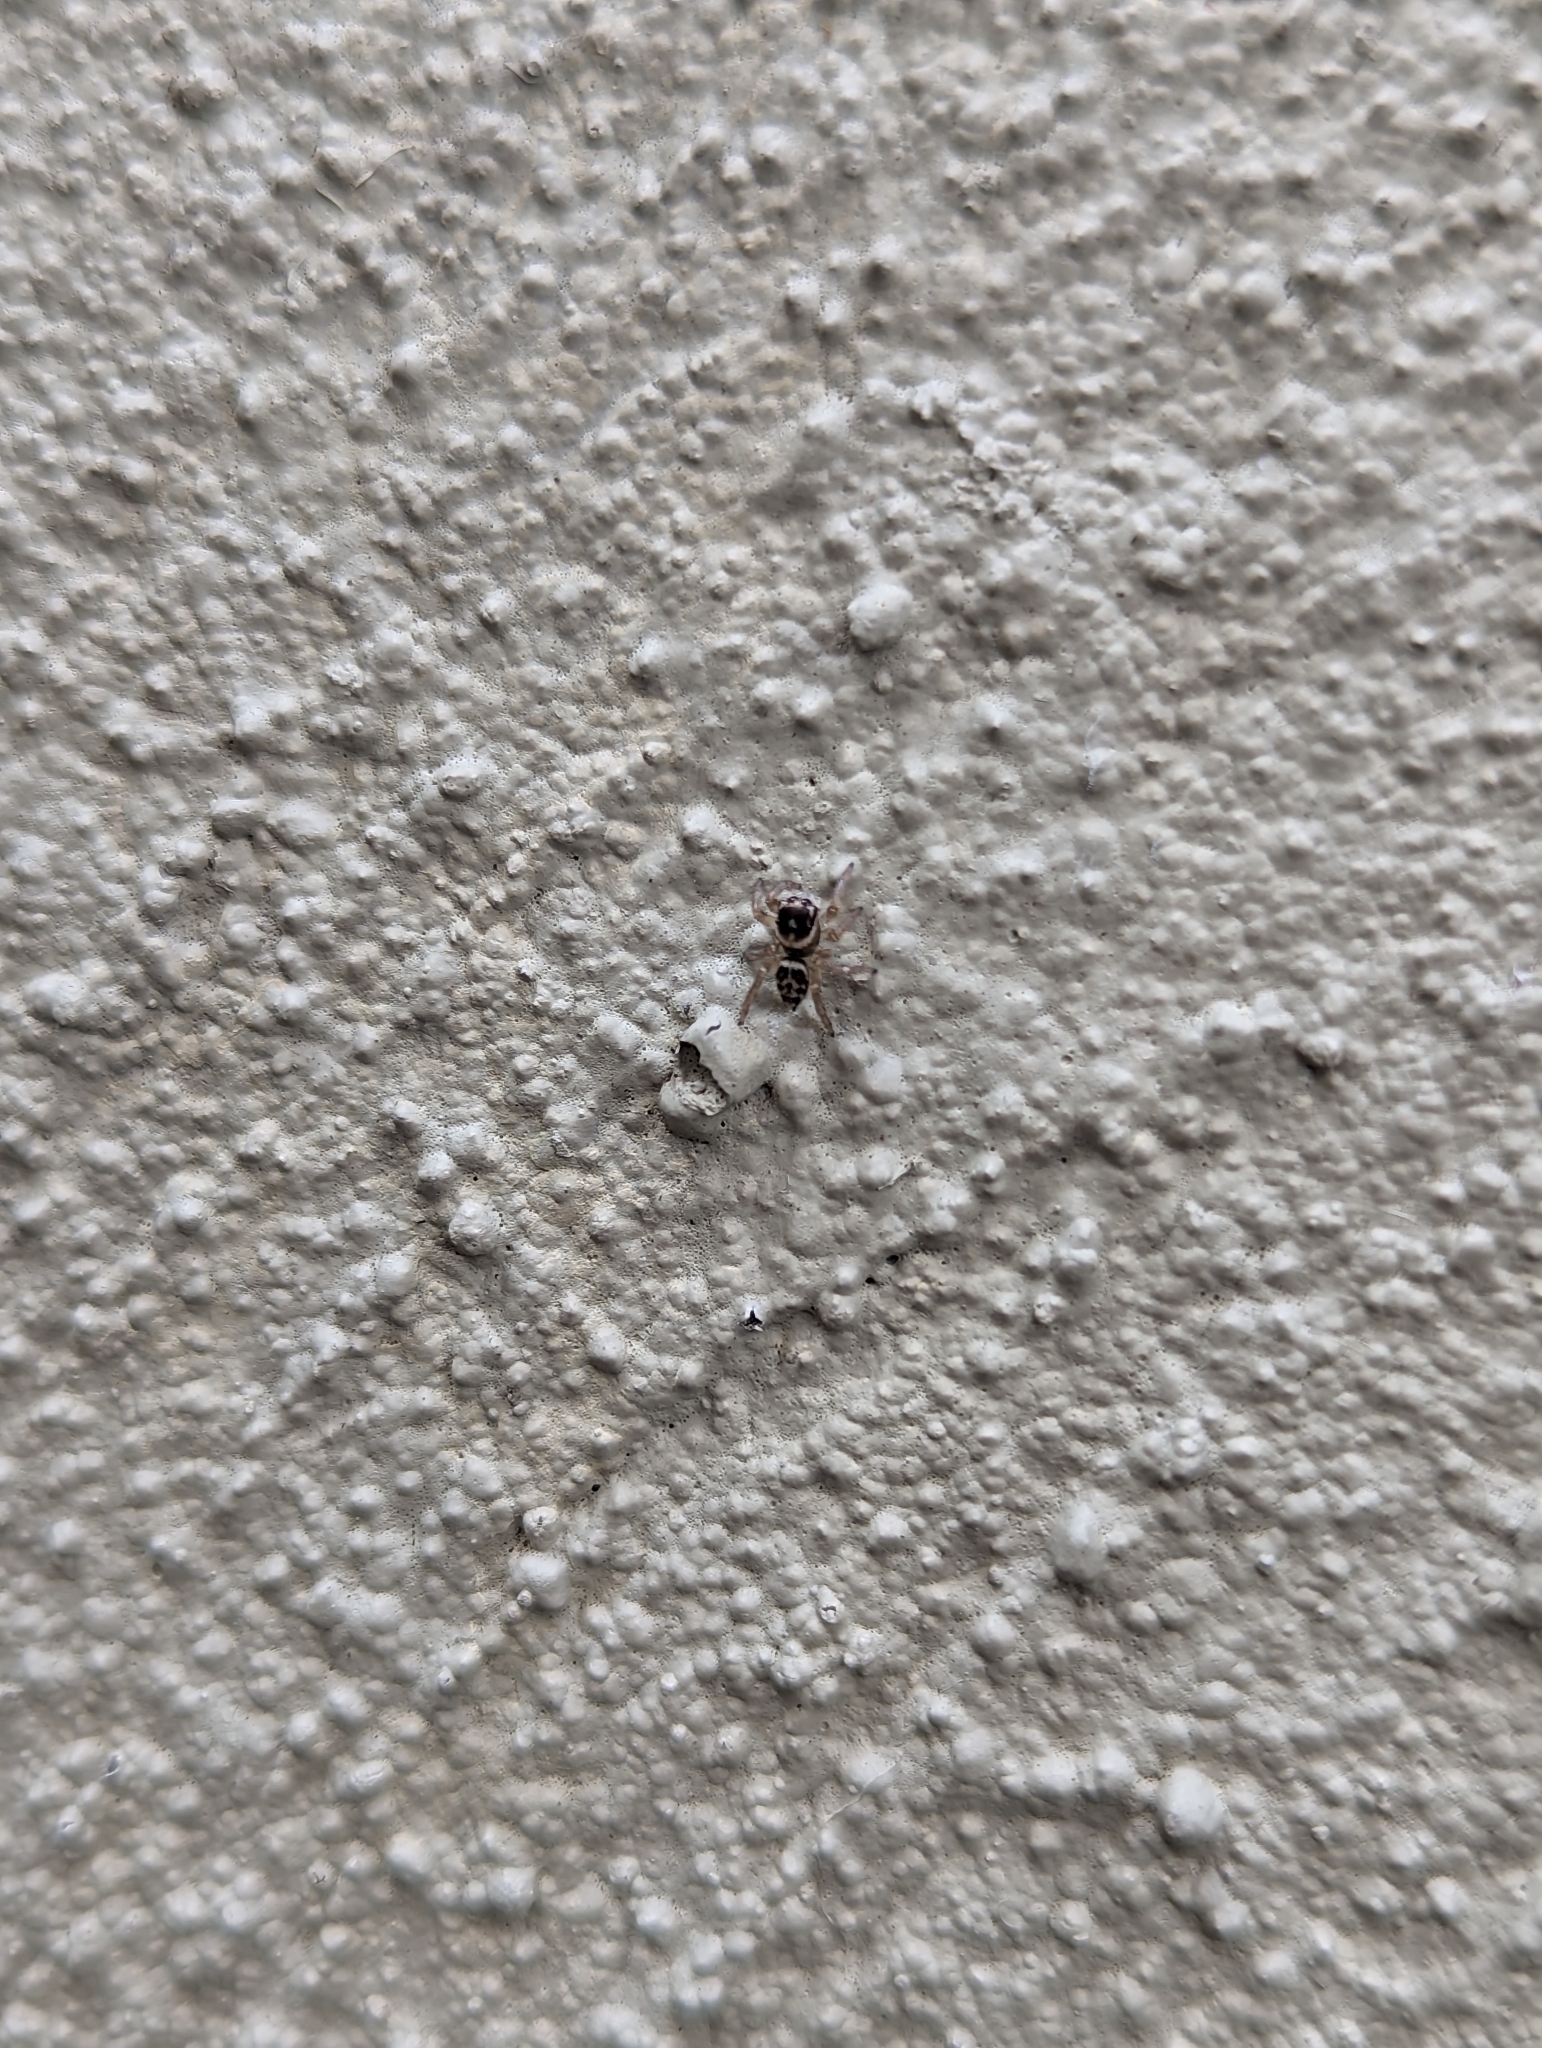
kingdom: Animalia
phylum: Arthropoda
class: Arachnida
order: Araneae
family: Salticidae
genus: Maratus
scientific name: Maratus griseus
